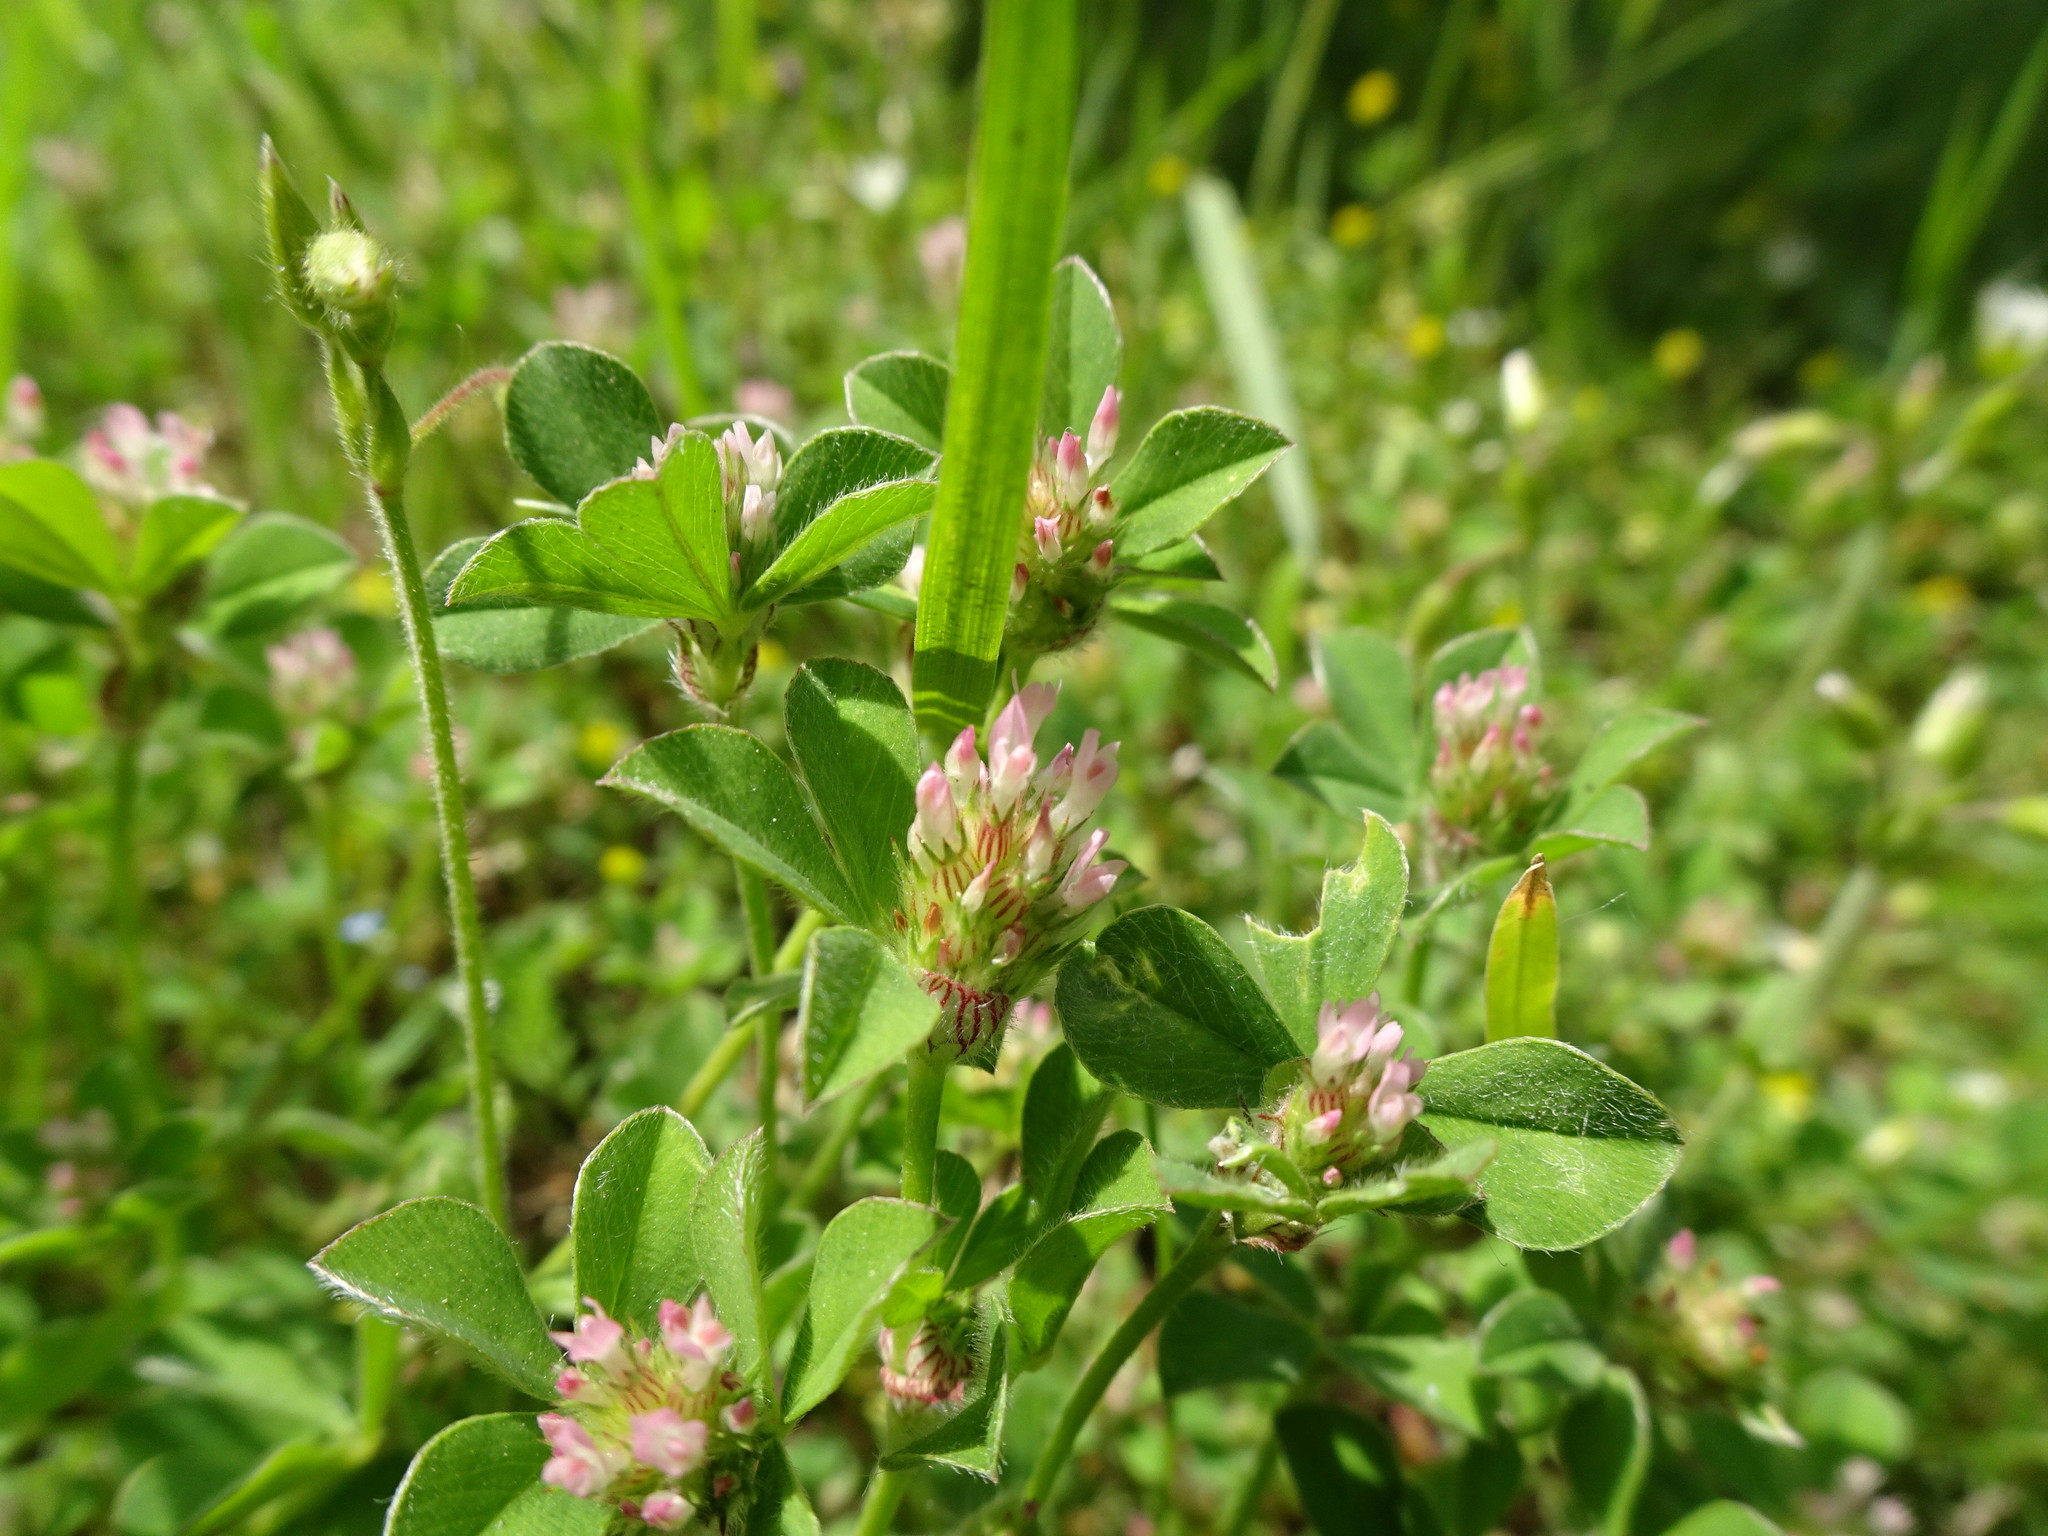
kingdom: Plantae
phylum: Tracheophyta
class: Magnoliopsida
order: Fabales
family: Fabaceae
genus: Trifolium
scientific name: Trifolium striatum
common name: Knotted clover
